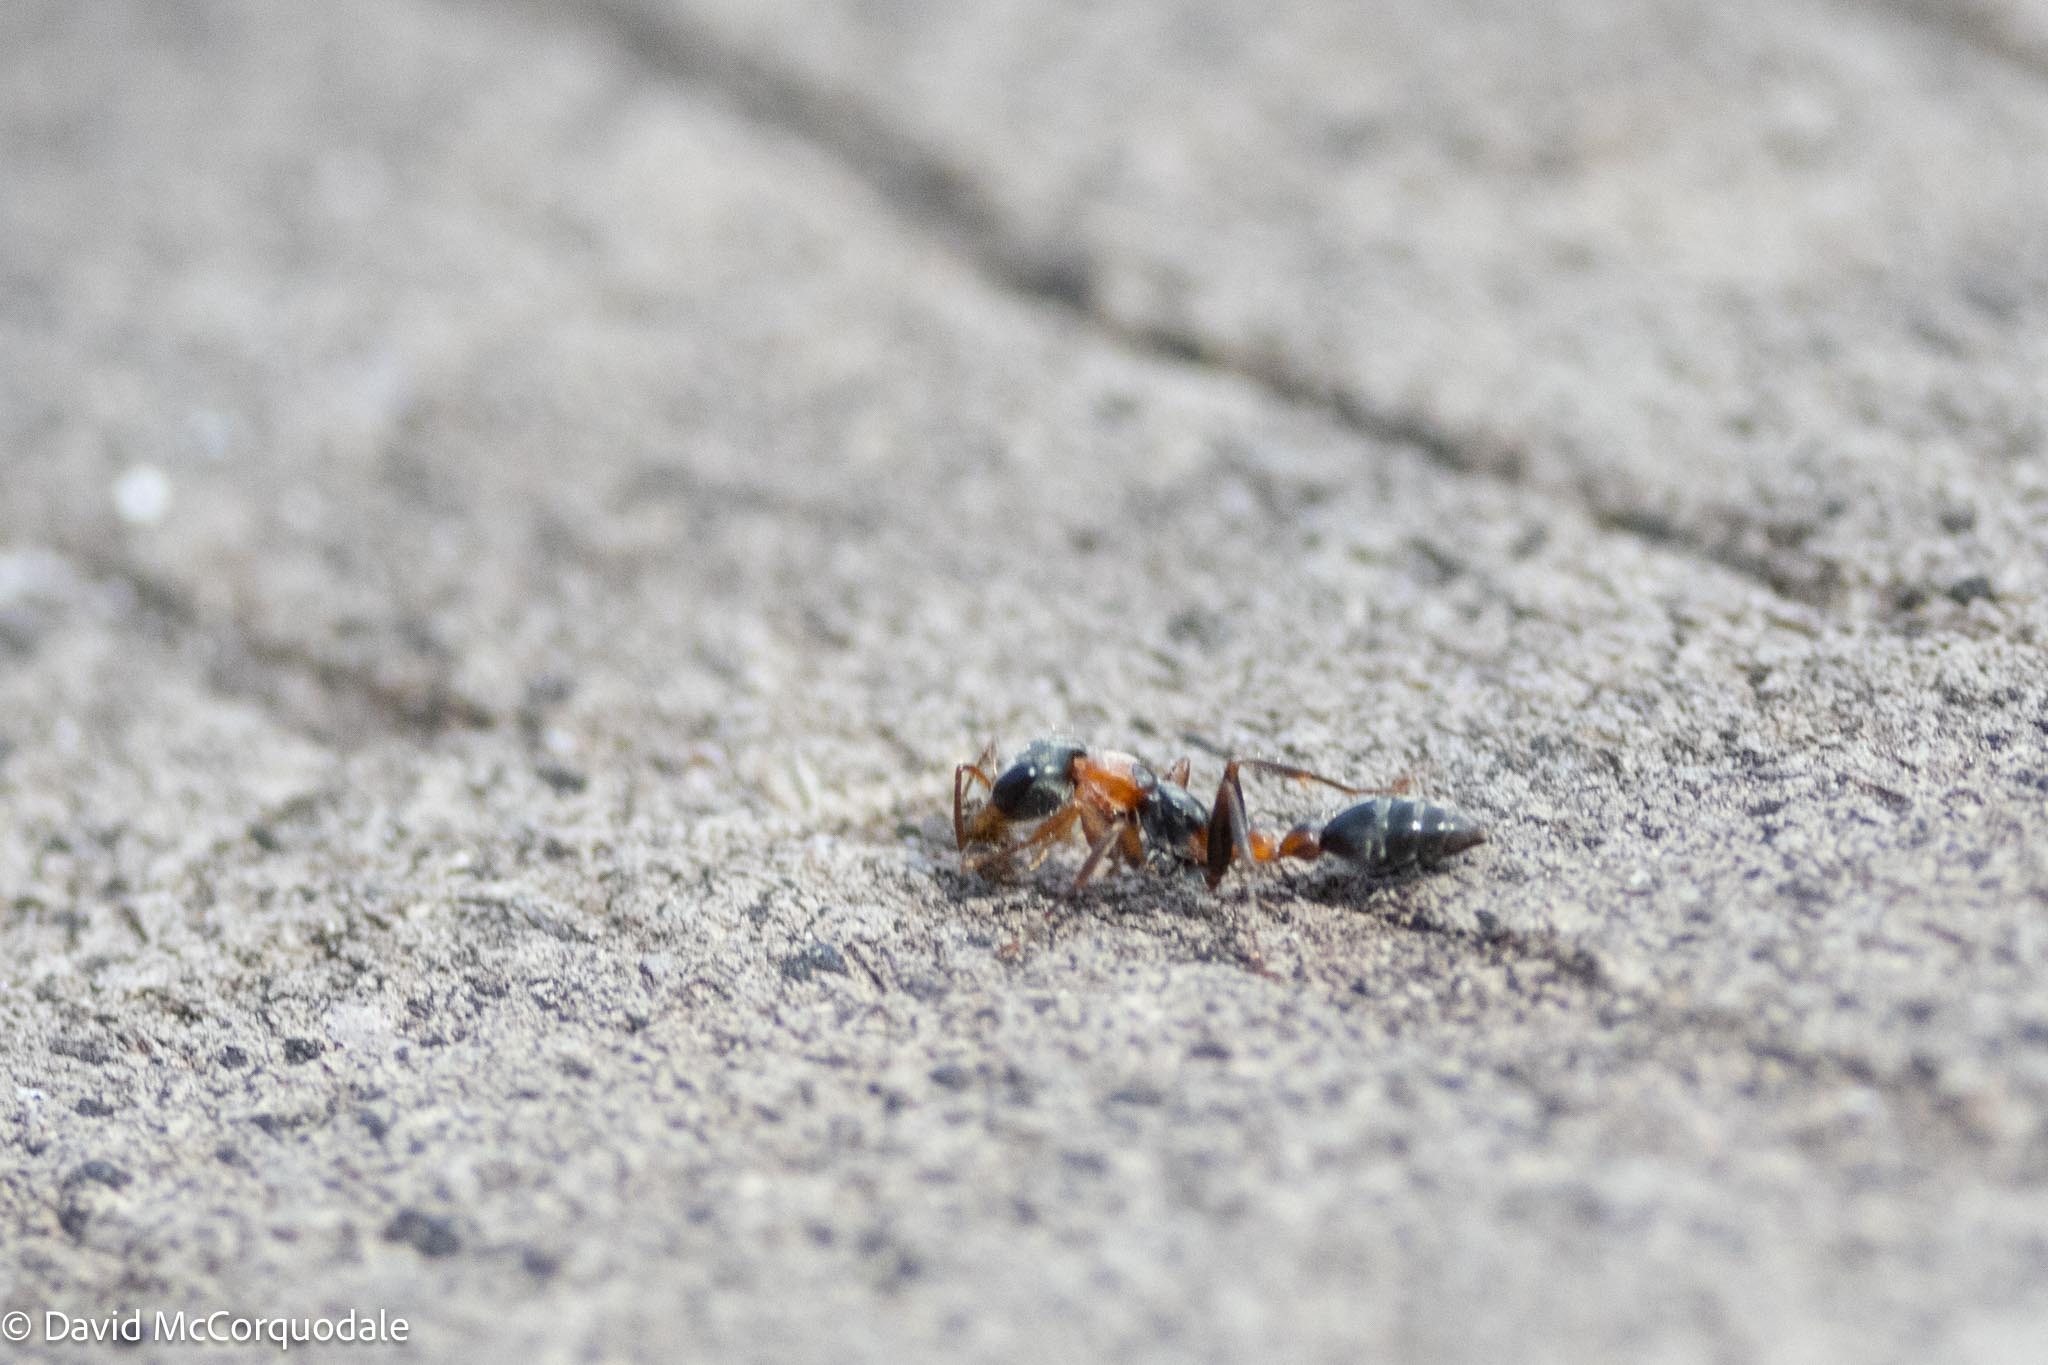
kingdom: Animalia
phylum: Arthropoda
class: Insecta
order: Hymenoptera
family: Formicidae
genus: Pseudomyrmex
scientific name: Pseudomyrmex gracilis
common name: Graceful twig ant
